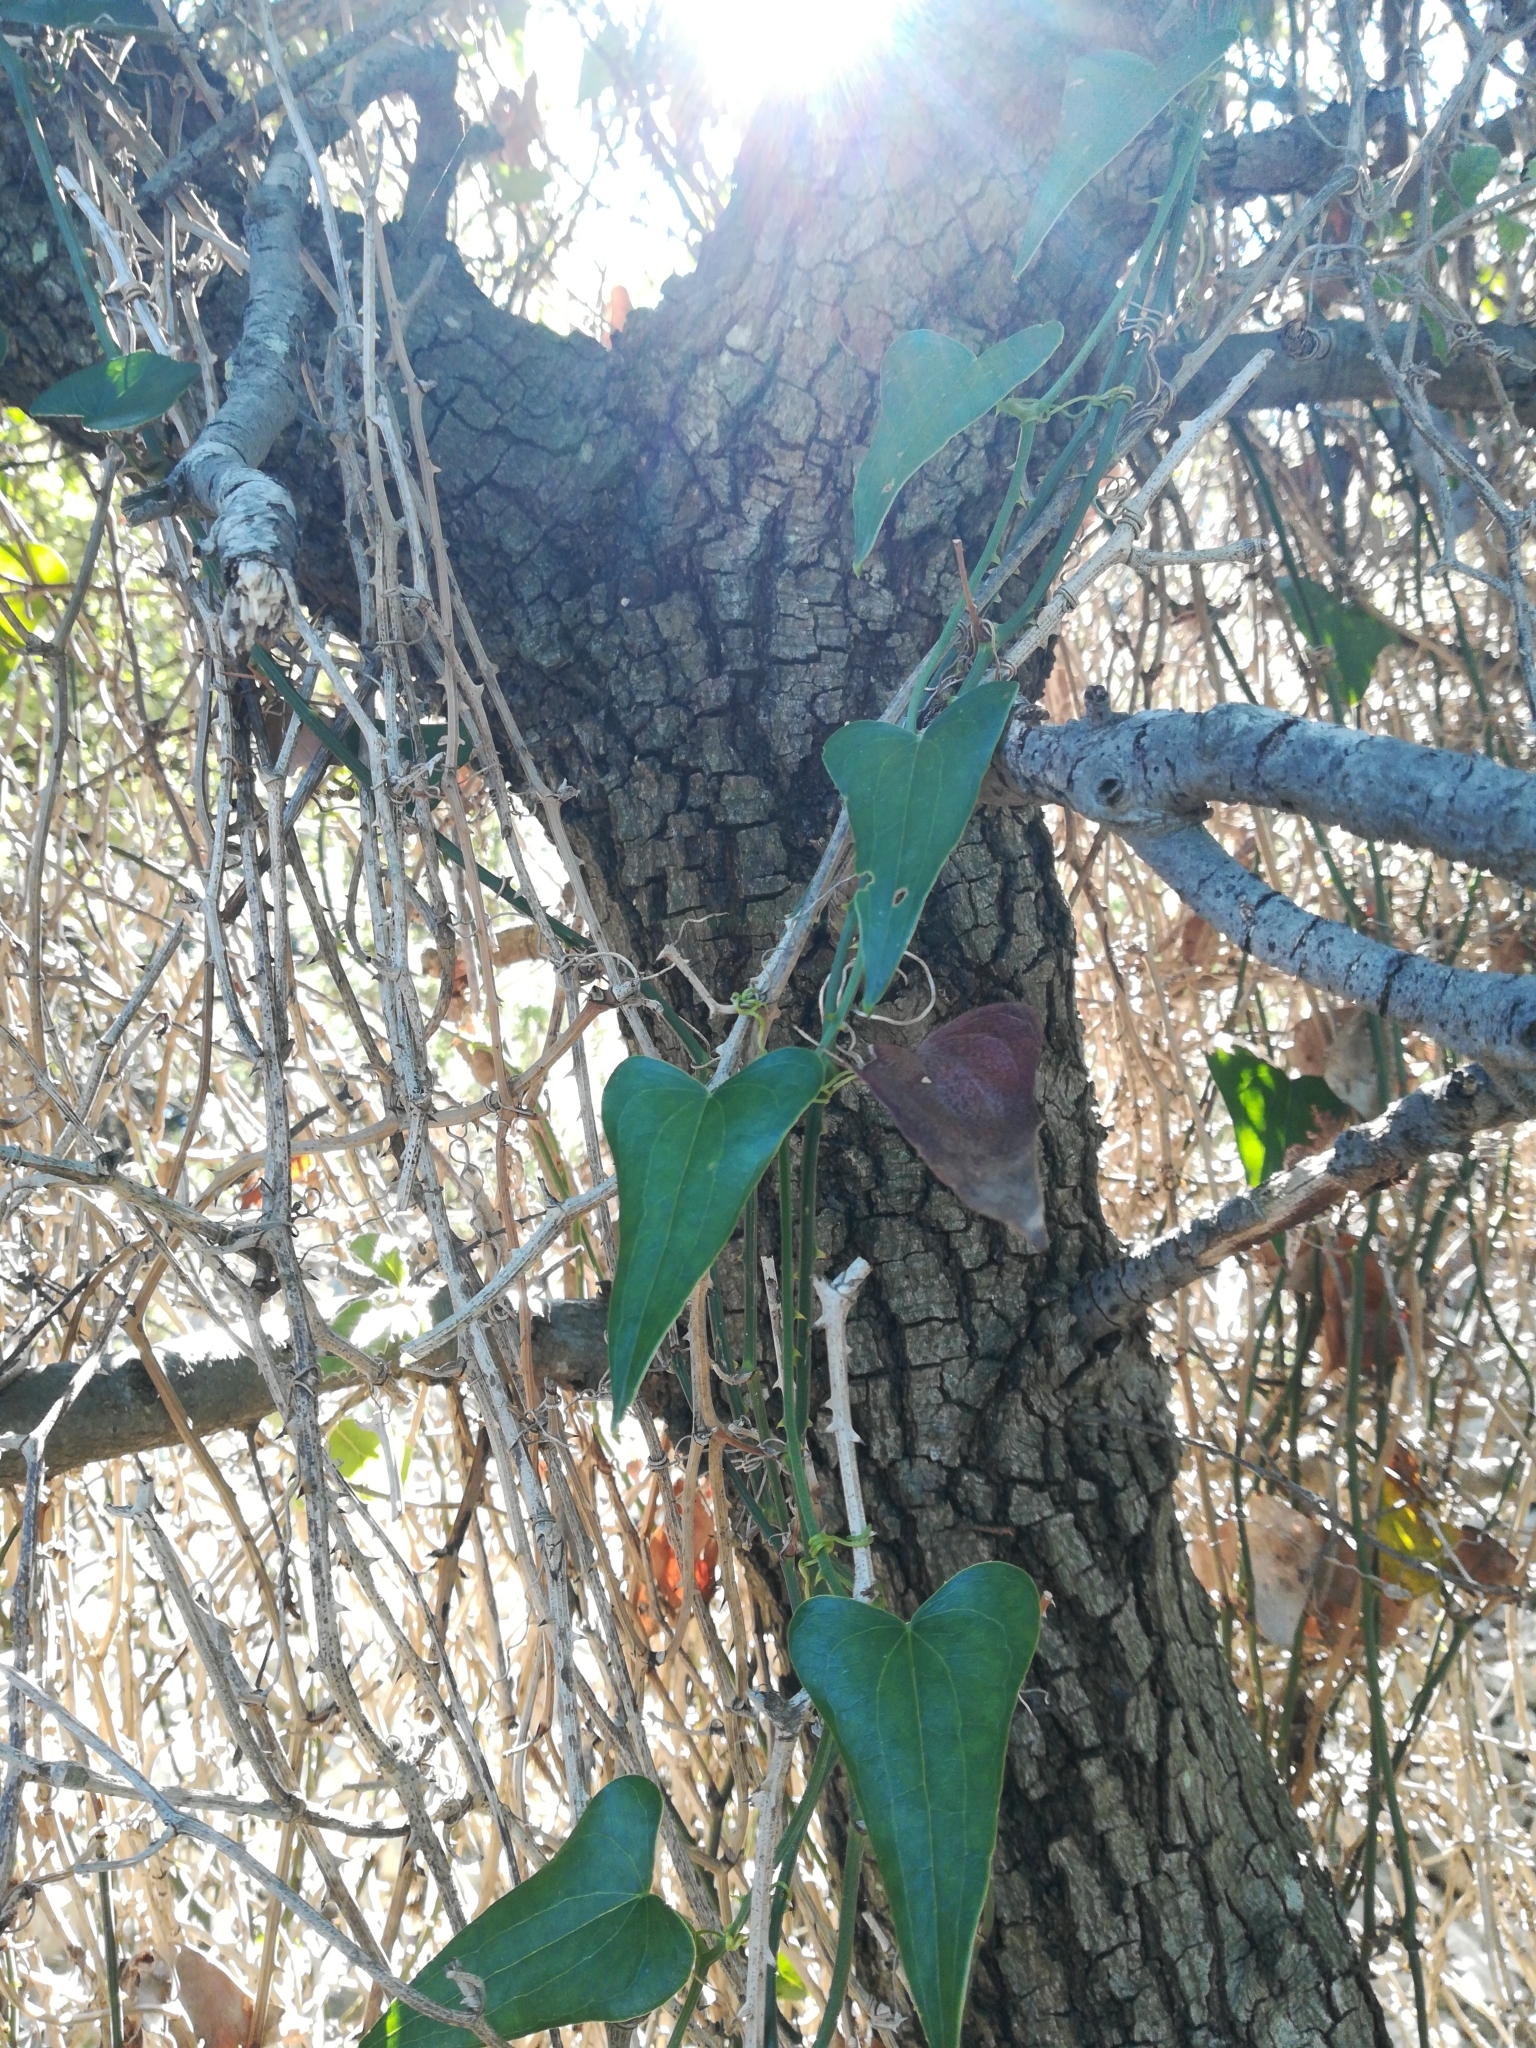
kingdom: Plantae
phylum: Tracheophyta
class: Liliopsida
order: Liliales
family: Smilacaceae
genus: Smilax
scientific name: Smilax aspera
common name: Common smilax
